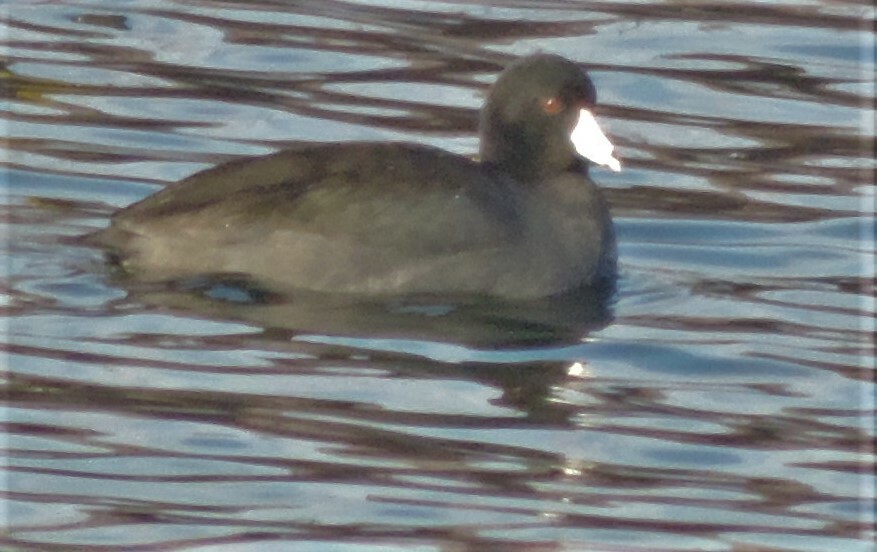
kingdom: Animalia
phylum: Chordata
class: Aves
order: Gruiformes
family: Rallidae
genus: Fulica
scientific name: Fulica americana
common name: American coot
